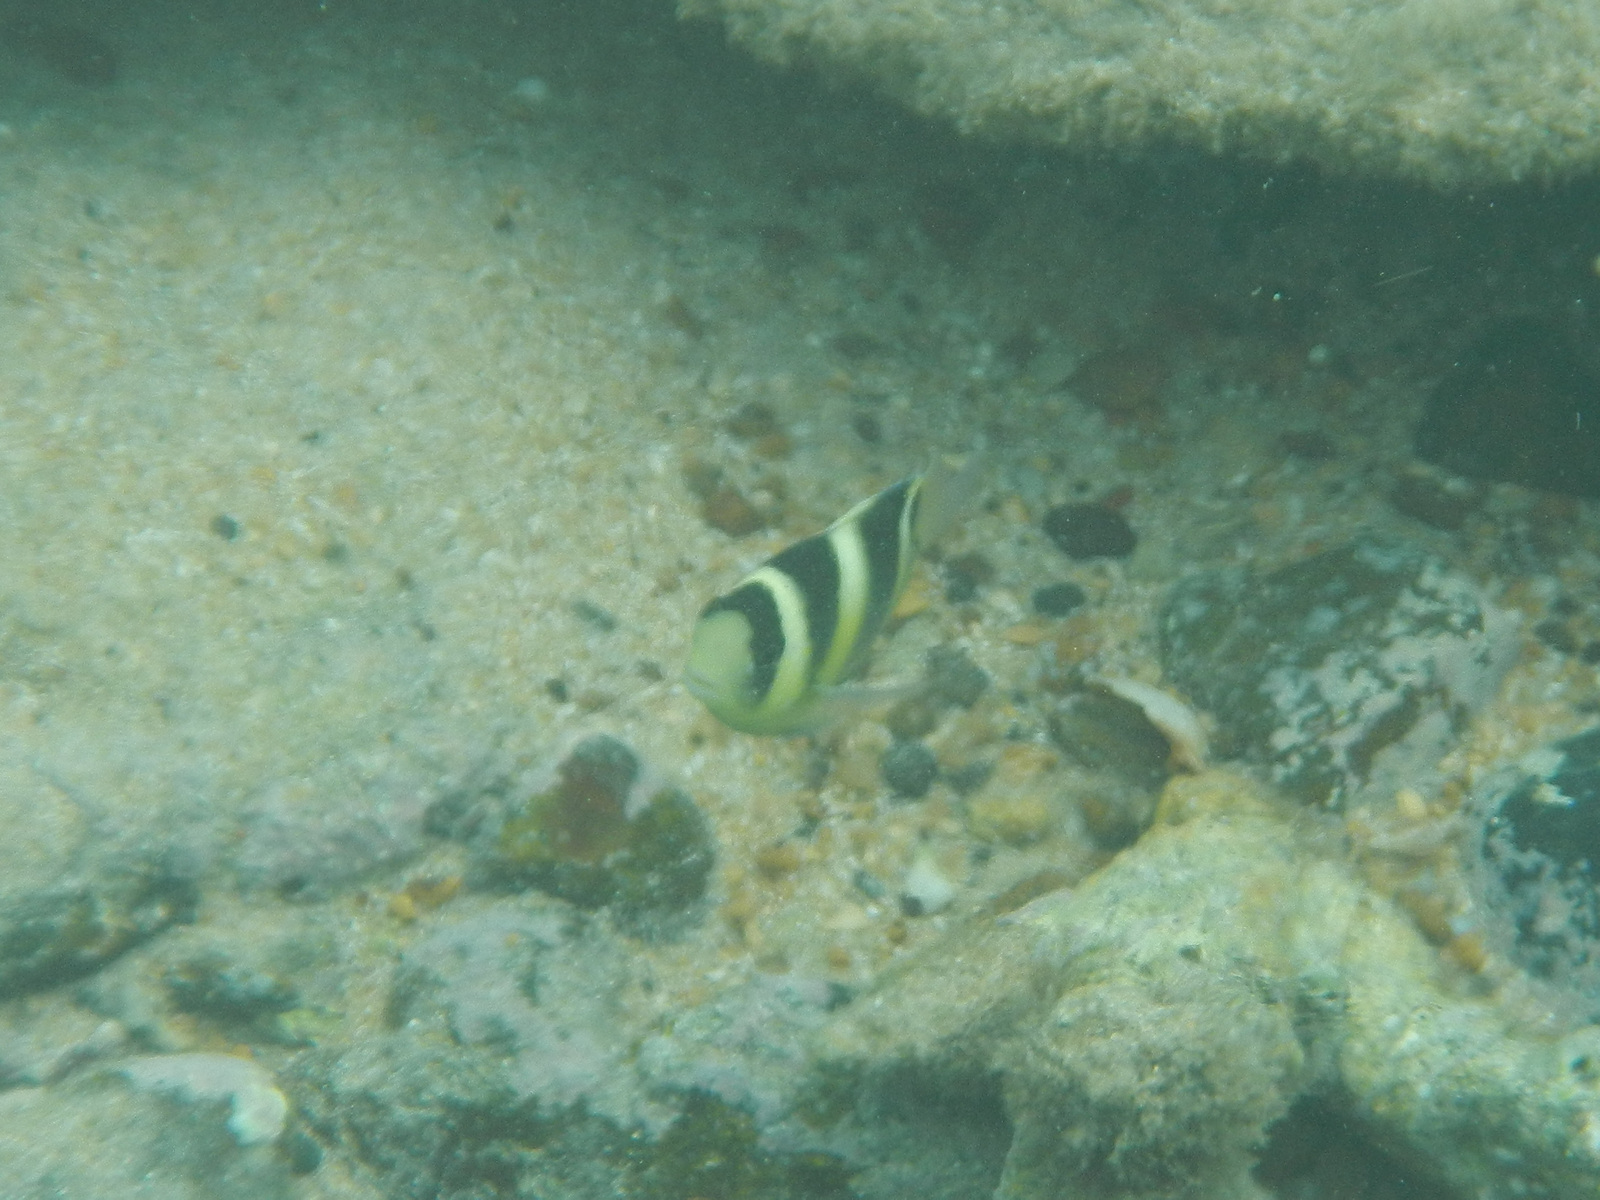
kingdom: Animalia
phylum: Chordata
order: Perciformes
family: Pomacentridae
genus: Dischistodus
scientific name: Dischistodus fasciatus
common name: Banded damsel
